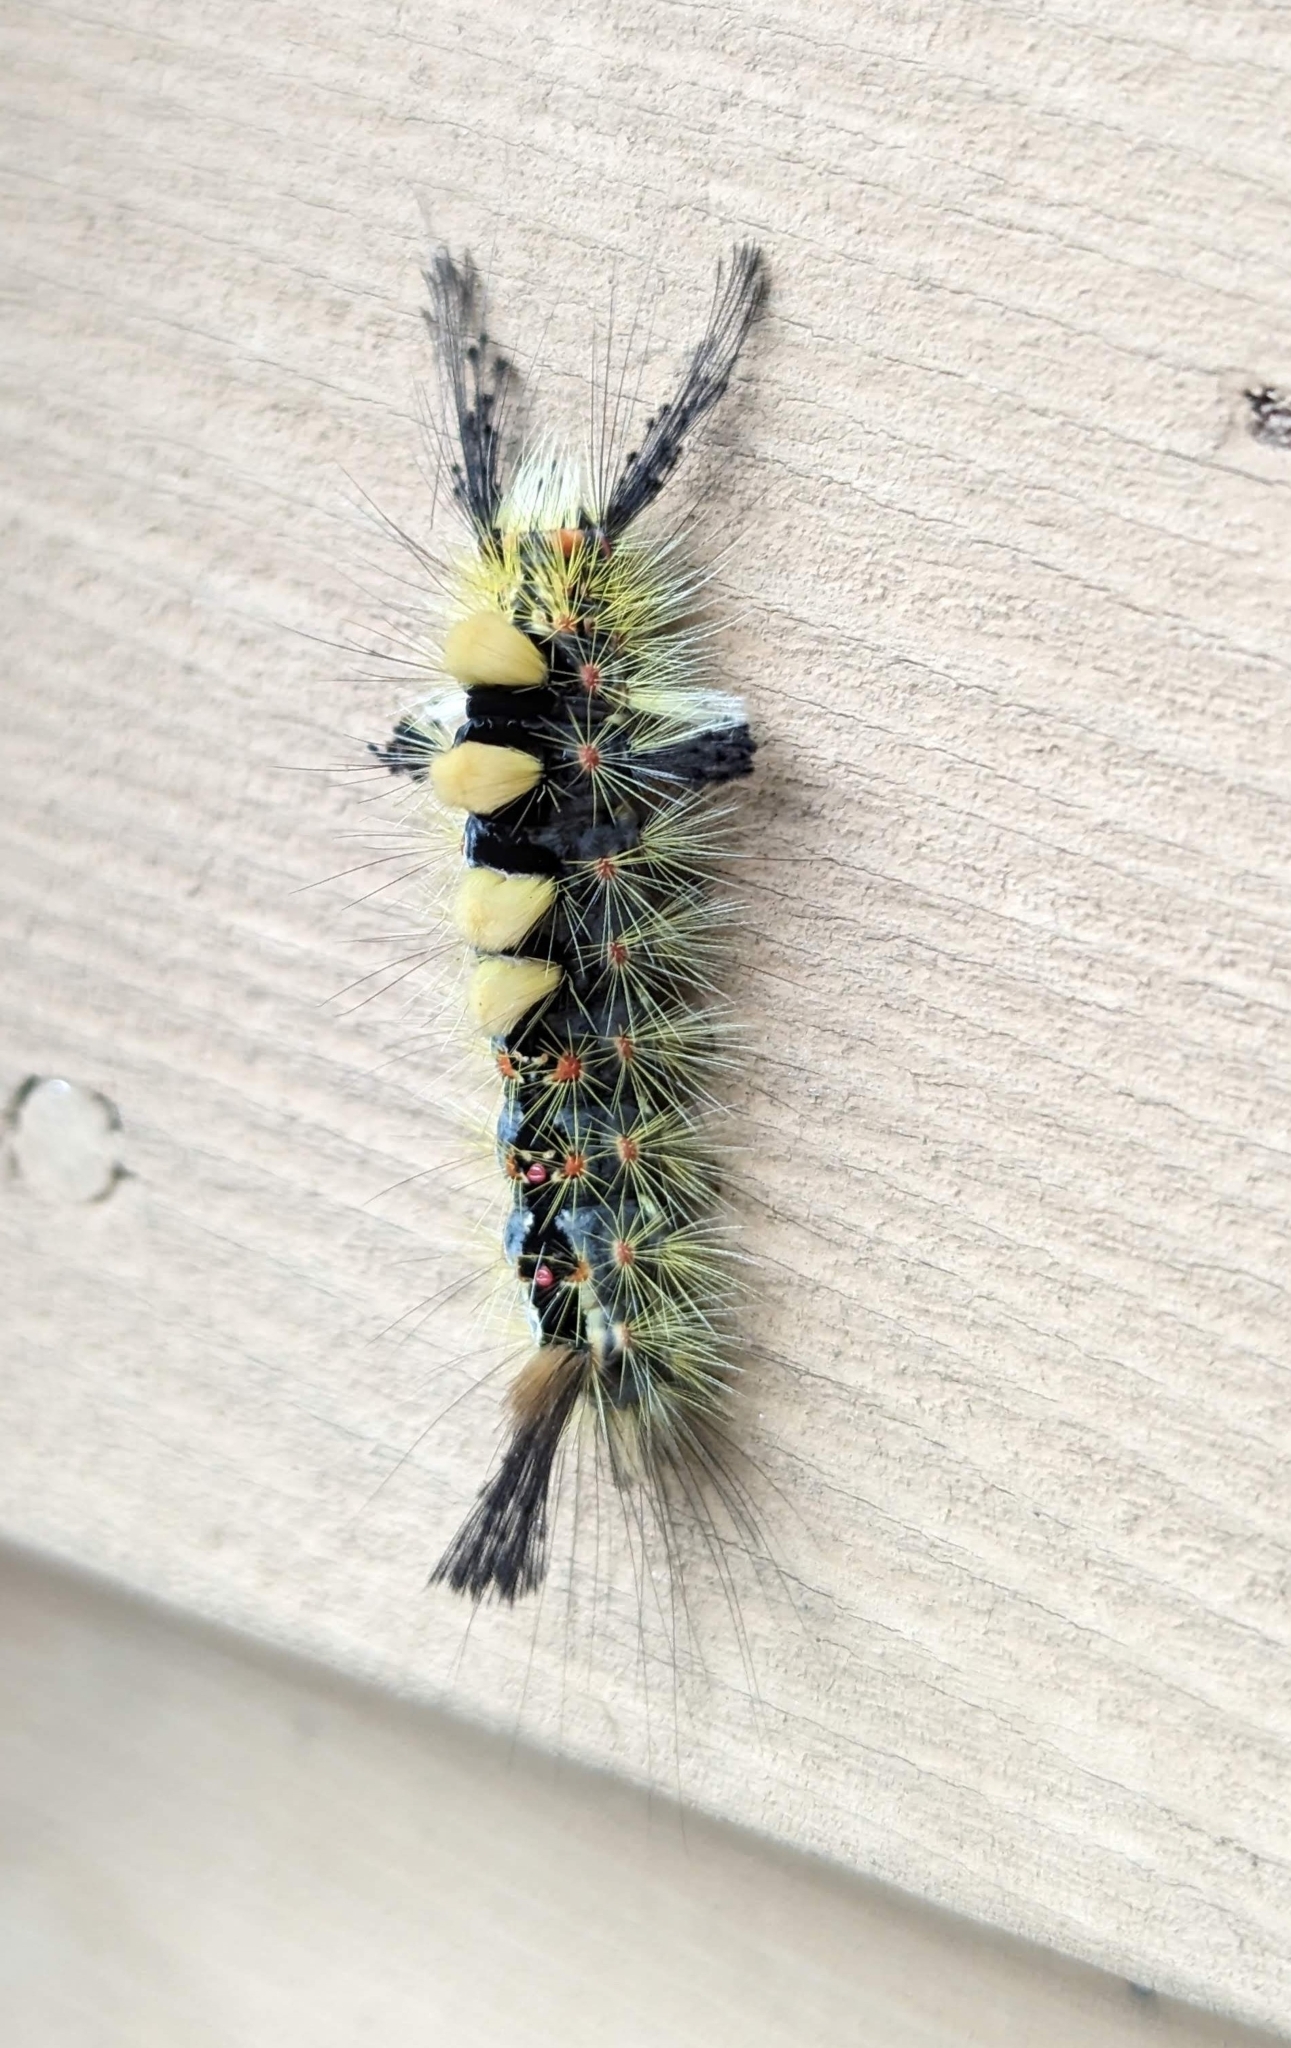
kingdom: Animalia
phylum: Arthropoda
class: Insecta
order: Lepidoptera
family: Erebidae
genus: Orgyia
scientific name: Orgyia antiqua
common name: Vapourer
